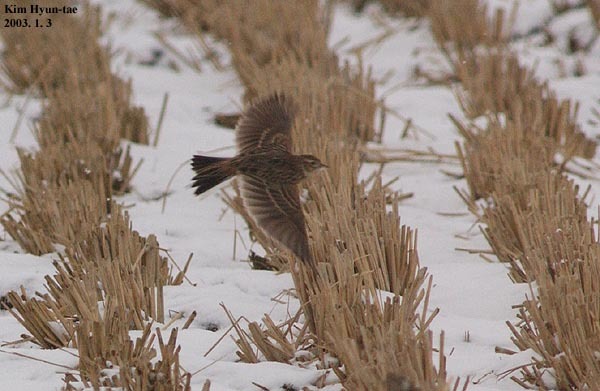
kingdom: Animalia
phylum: Chordata
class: Aves
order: Passeriformes
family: Alaudidae
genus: Alauda
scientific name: Alauda arvensis
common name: Eurasian skylark
